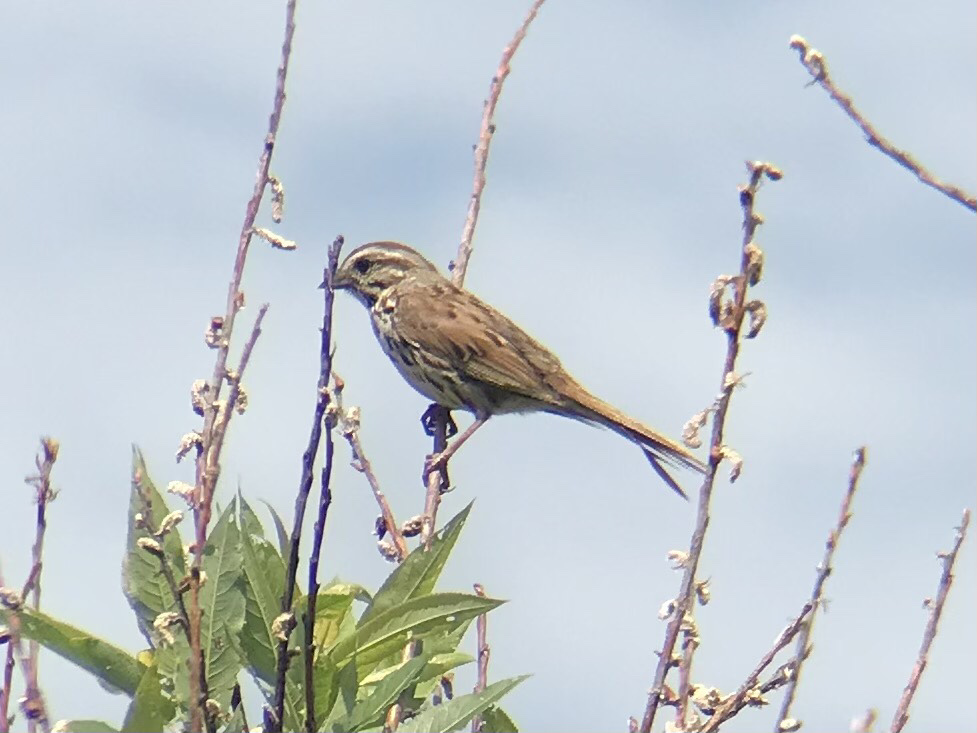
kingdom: Animalia
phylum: Chordata
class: Aves
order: Passeriformes
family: Passerellidae
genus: Melospiza
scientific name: Melospiza melodia
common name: Song sparrow
